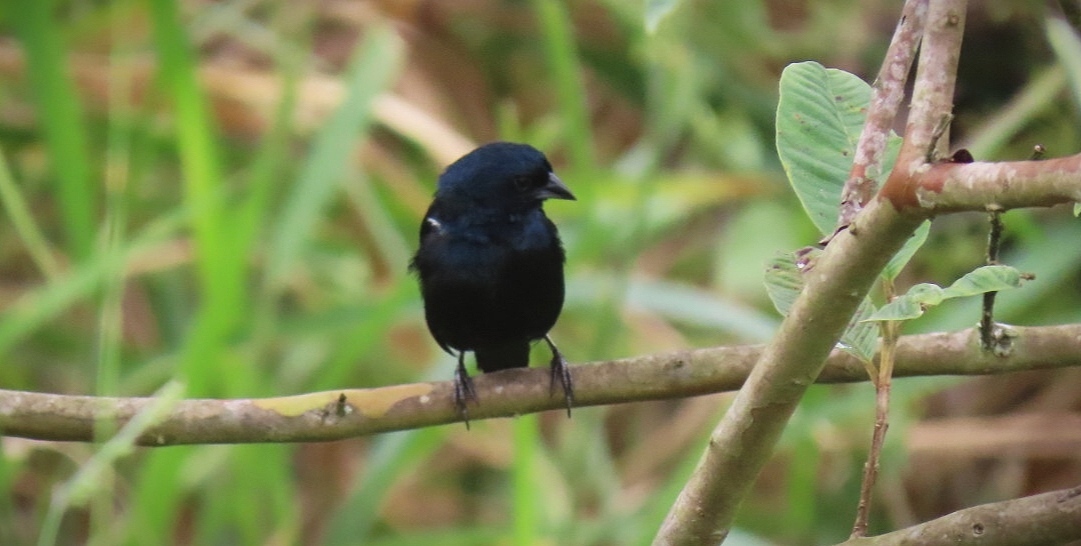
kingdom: Animalia
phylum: Chordata
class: Aves
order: Passeriformes
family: Thraupidae
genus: Volatinia
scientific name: Volatinia jacarina
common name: Blue-black grassquit
